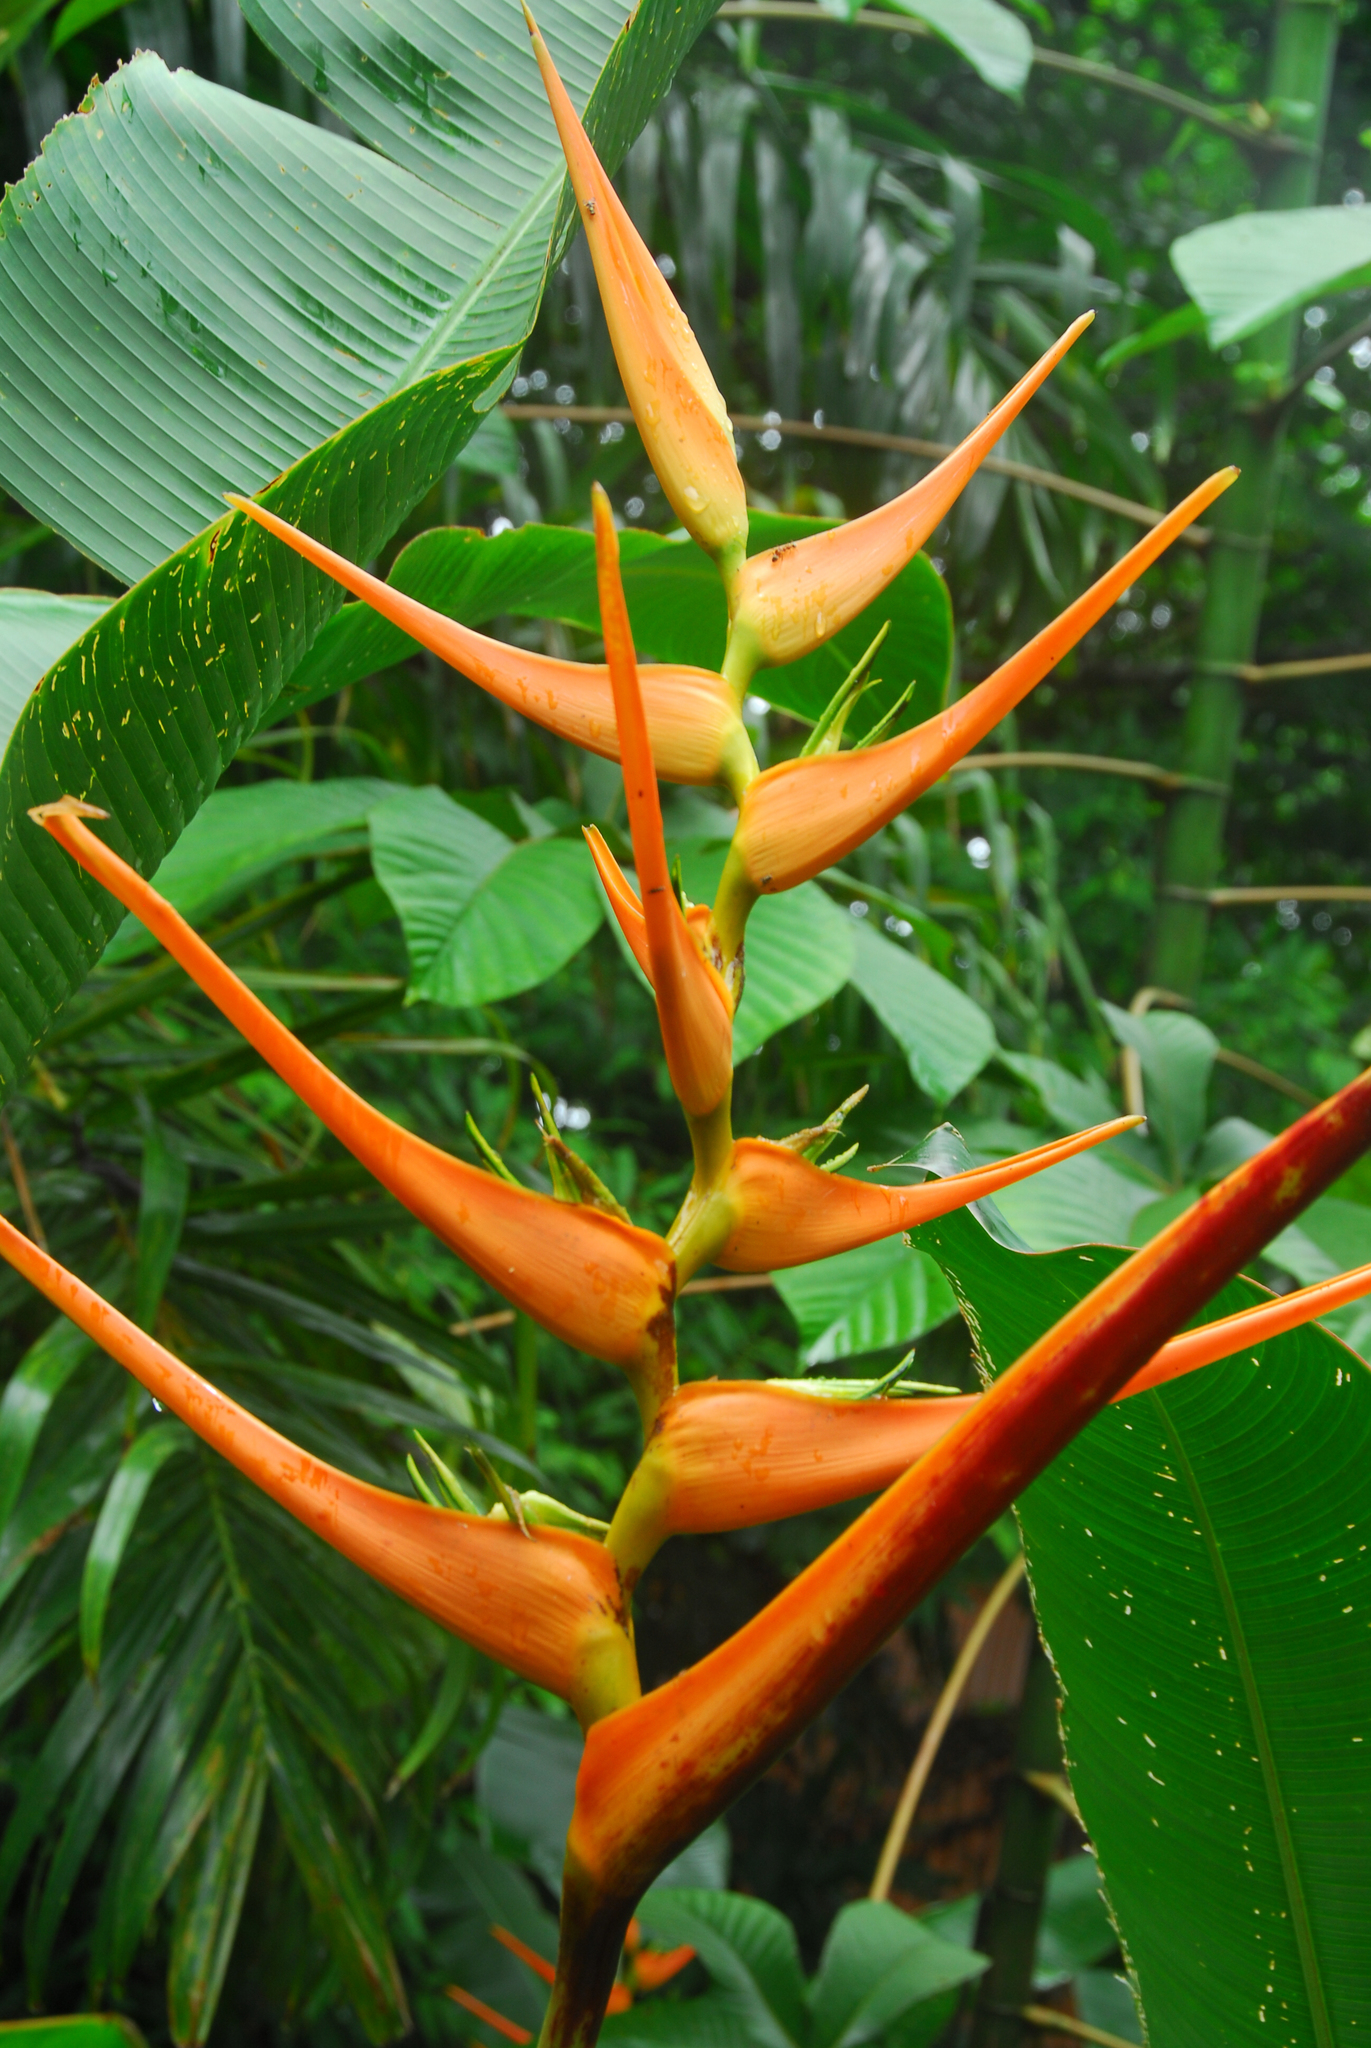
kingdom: Plantae
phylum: Tracheophyta
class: Liliopsida
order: Zingiberales
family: Heliconiaceae
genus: Heliconia
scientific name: Heliconia latispatha
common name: Expanded lobsterclaw
